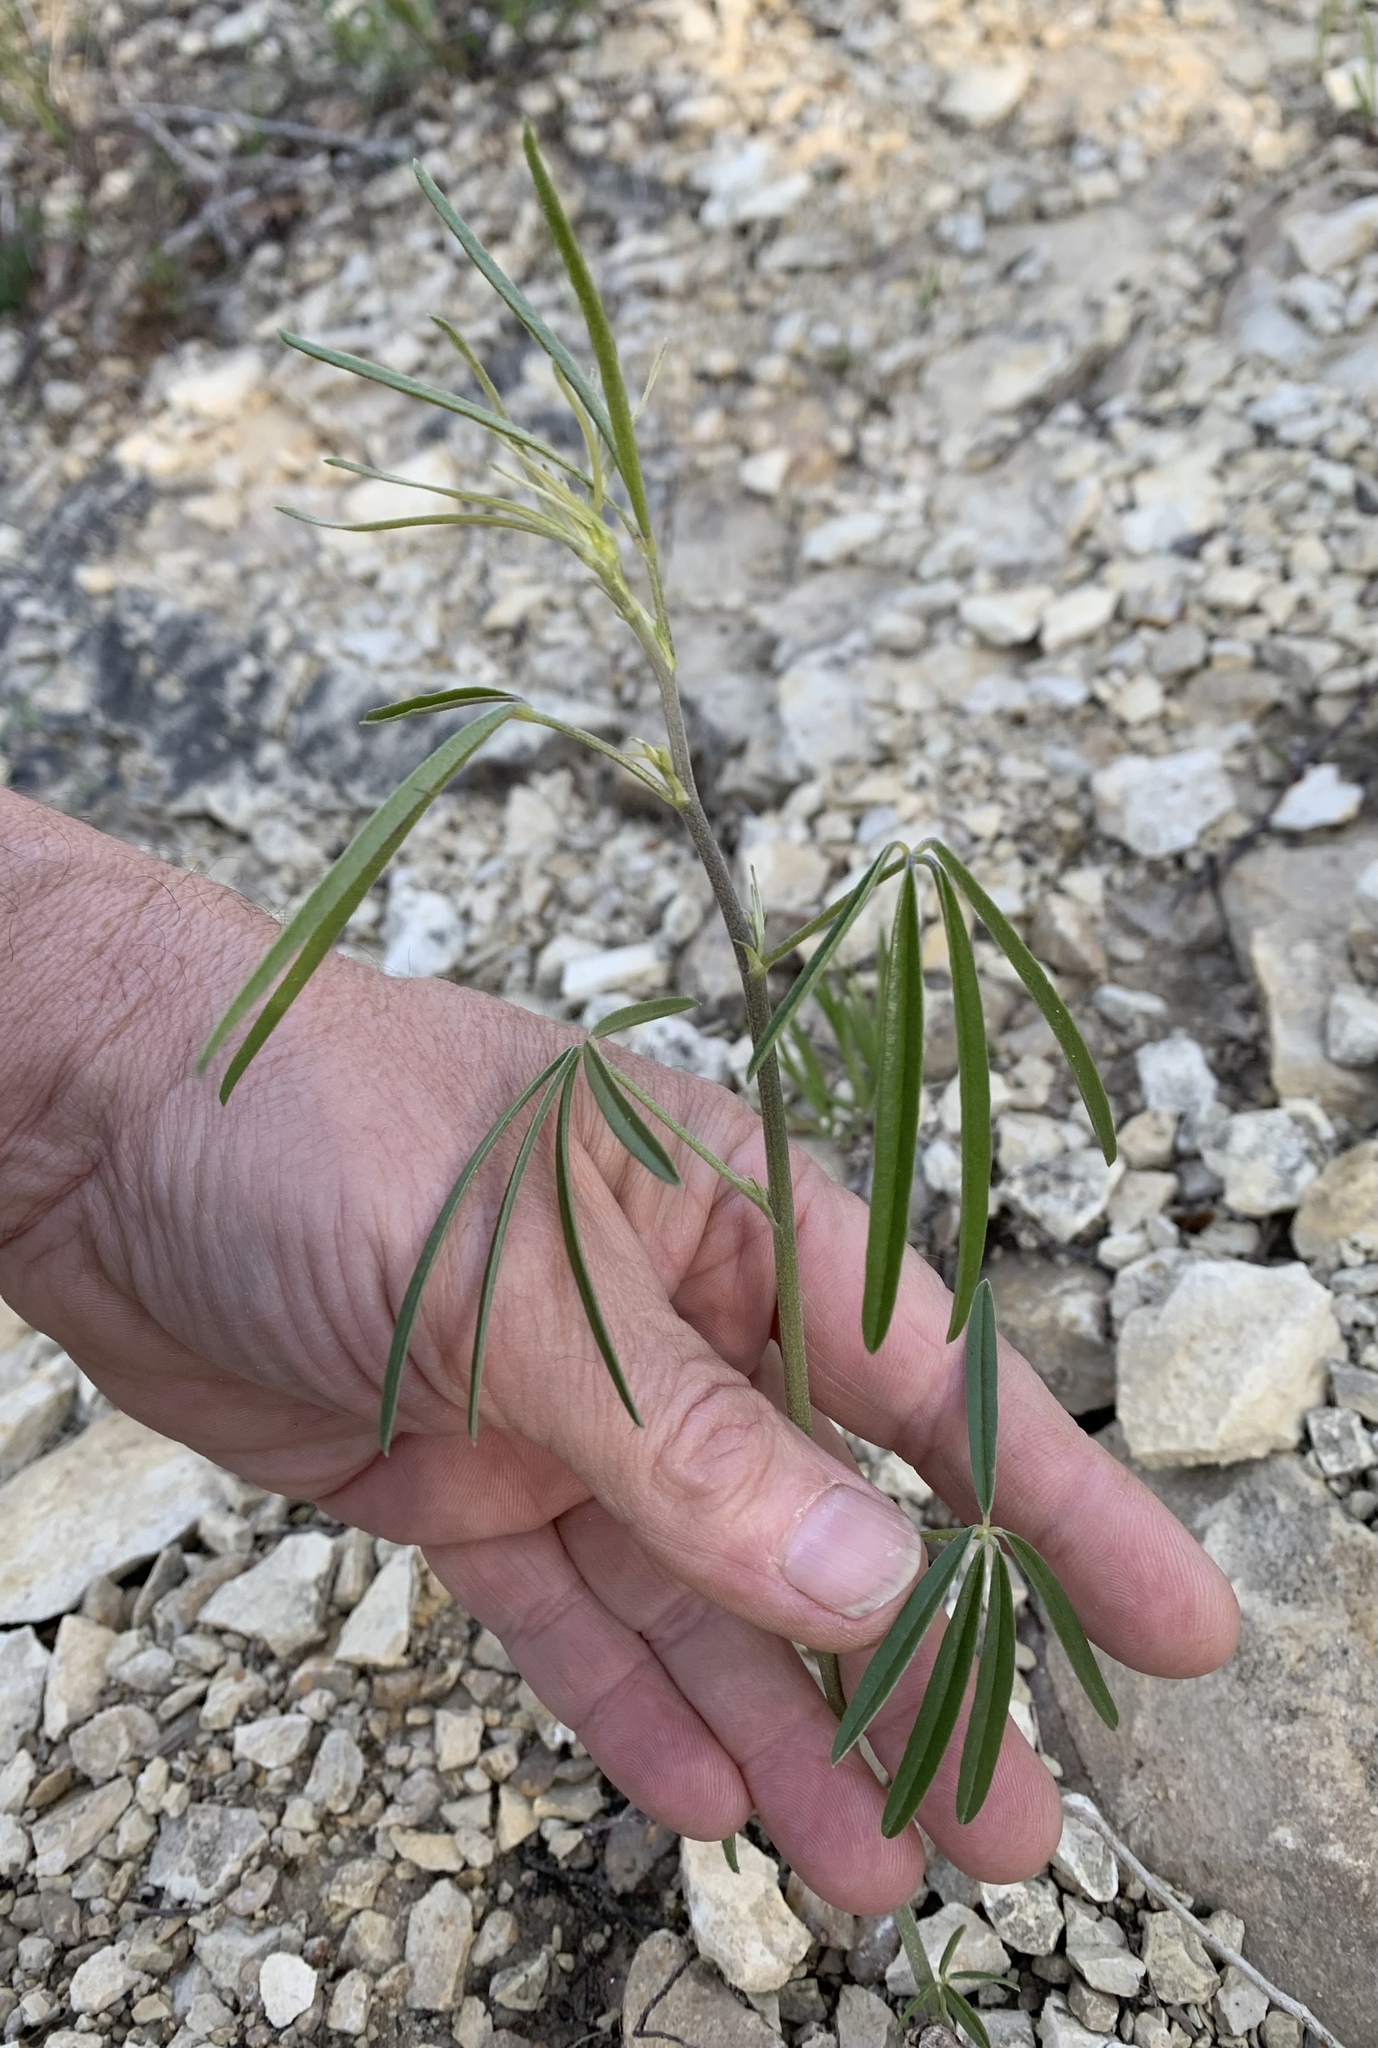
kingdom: Plantae
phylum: Tracheophyta
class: Magnoliopsida
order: Fabales
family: Fabaceae
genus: Pediomelum
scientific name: Pediomelum linearifolium
